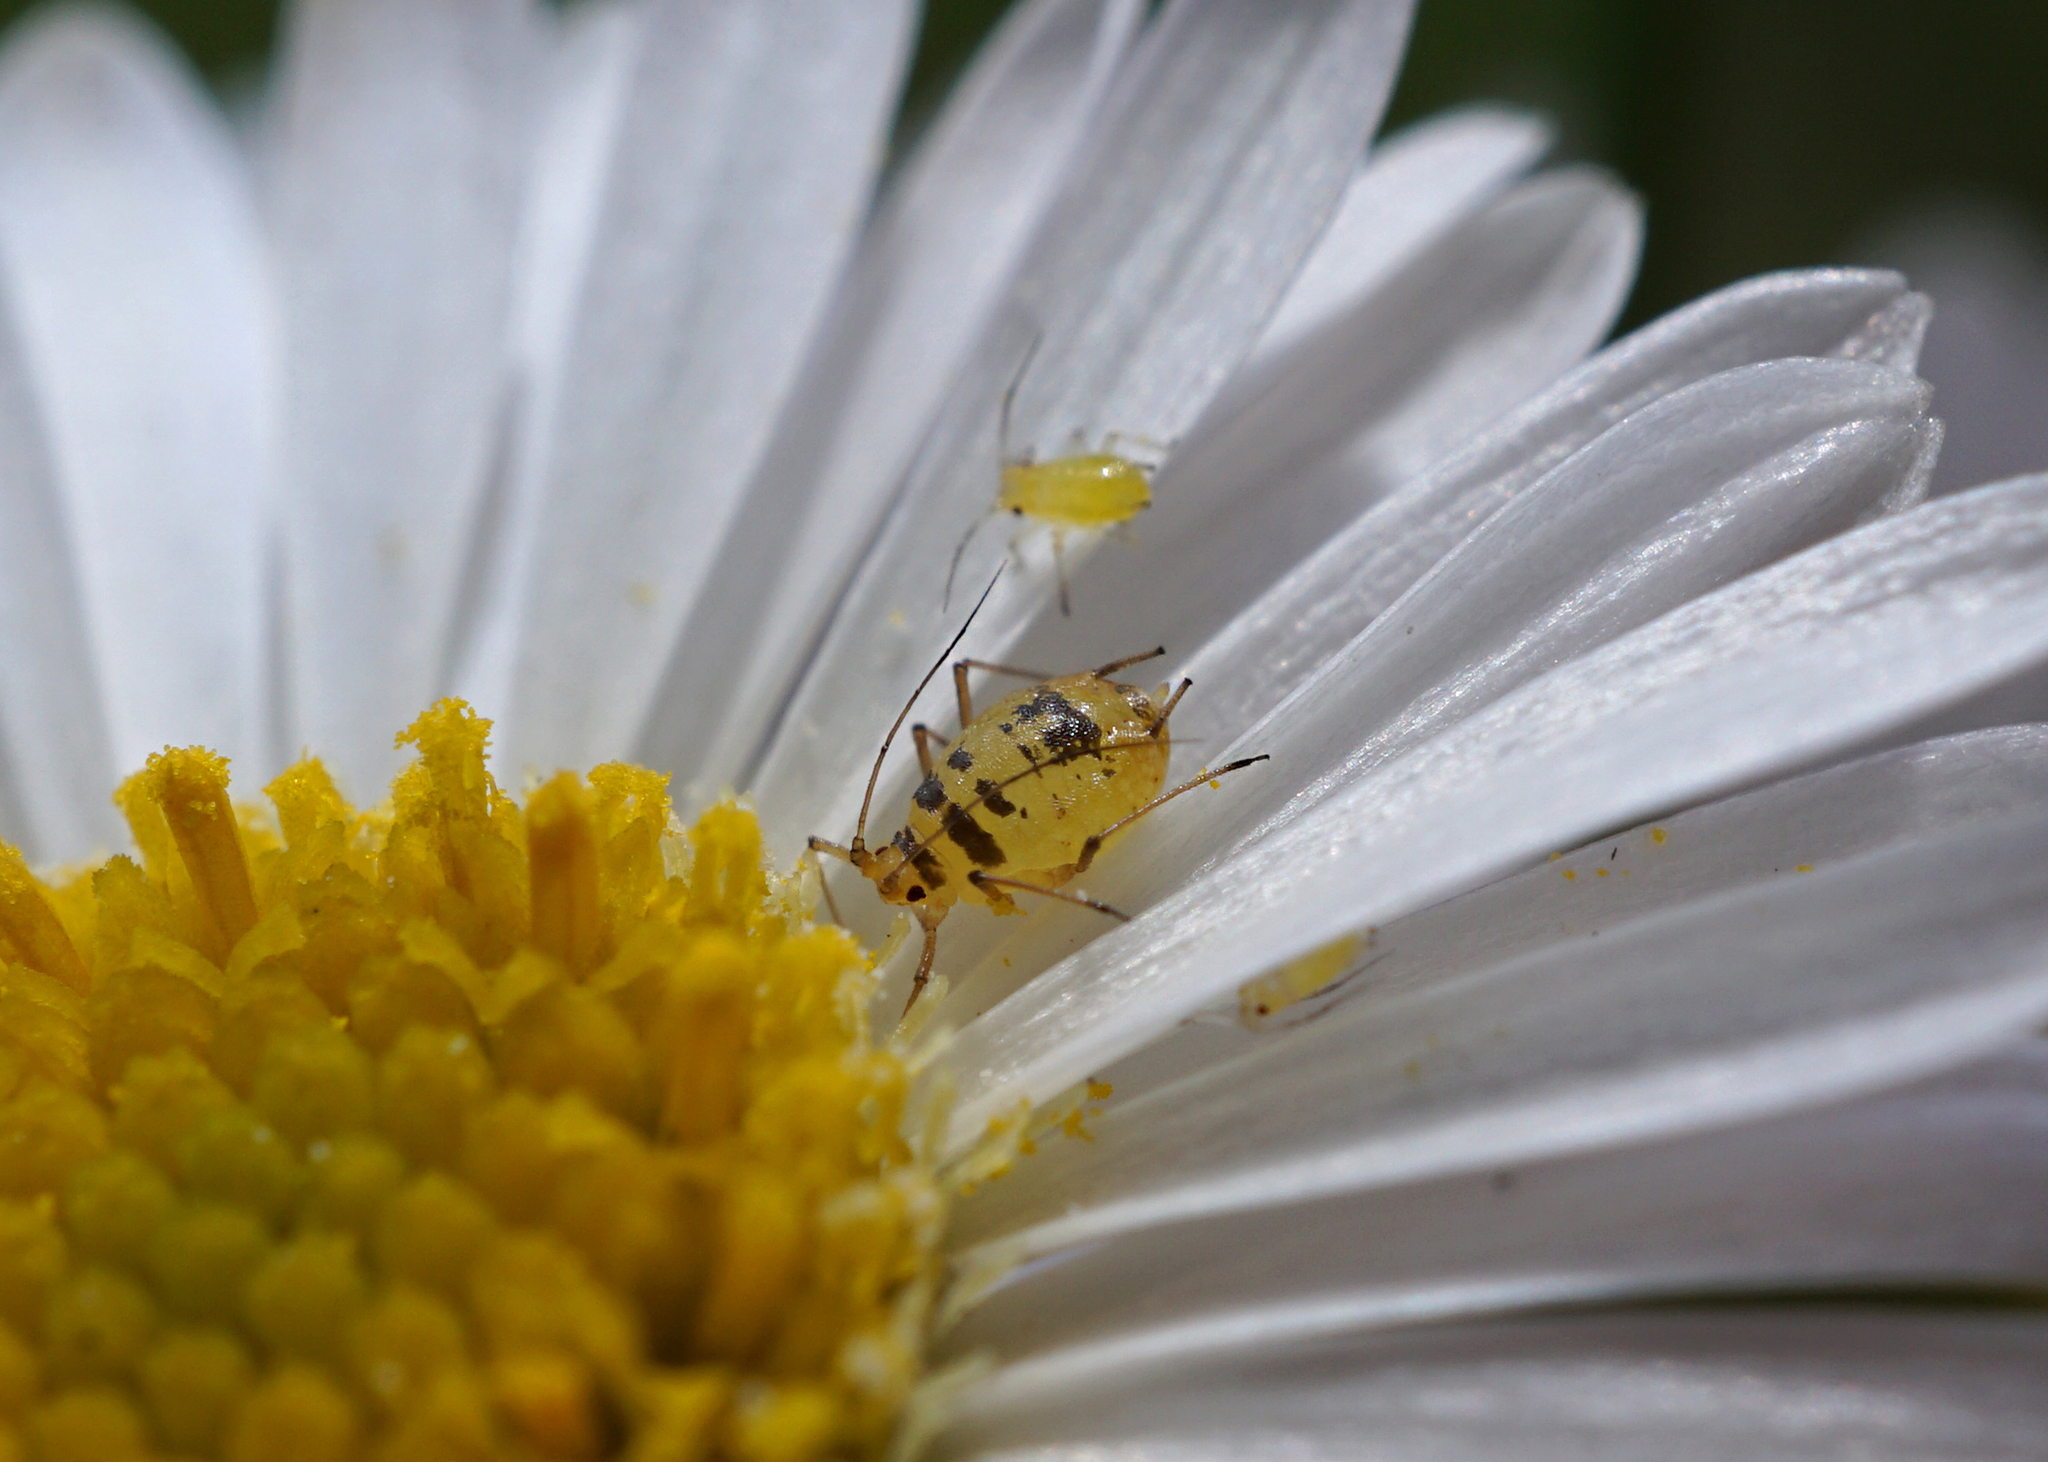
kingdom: Animalia
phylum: Arthropoda
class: Insecta
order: Hemiptera
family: Aphididae
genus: Neomyzus
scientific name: Neomyzus circumflexus
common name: Crescentmarked lily aphid
